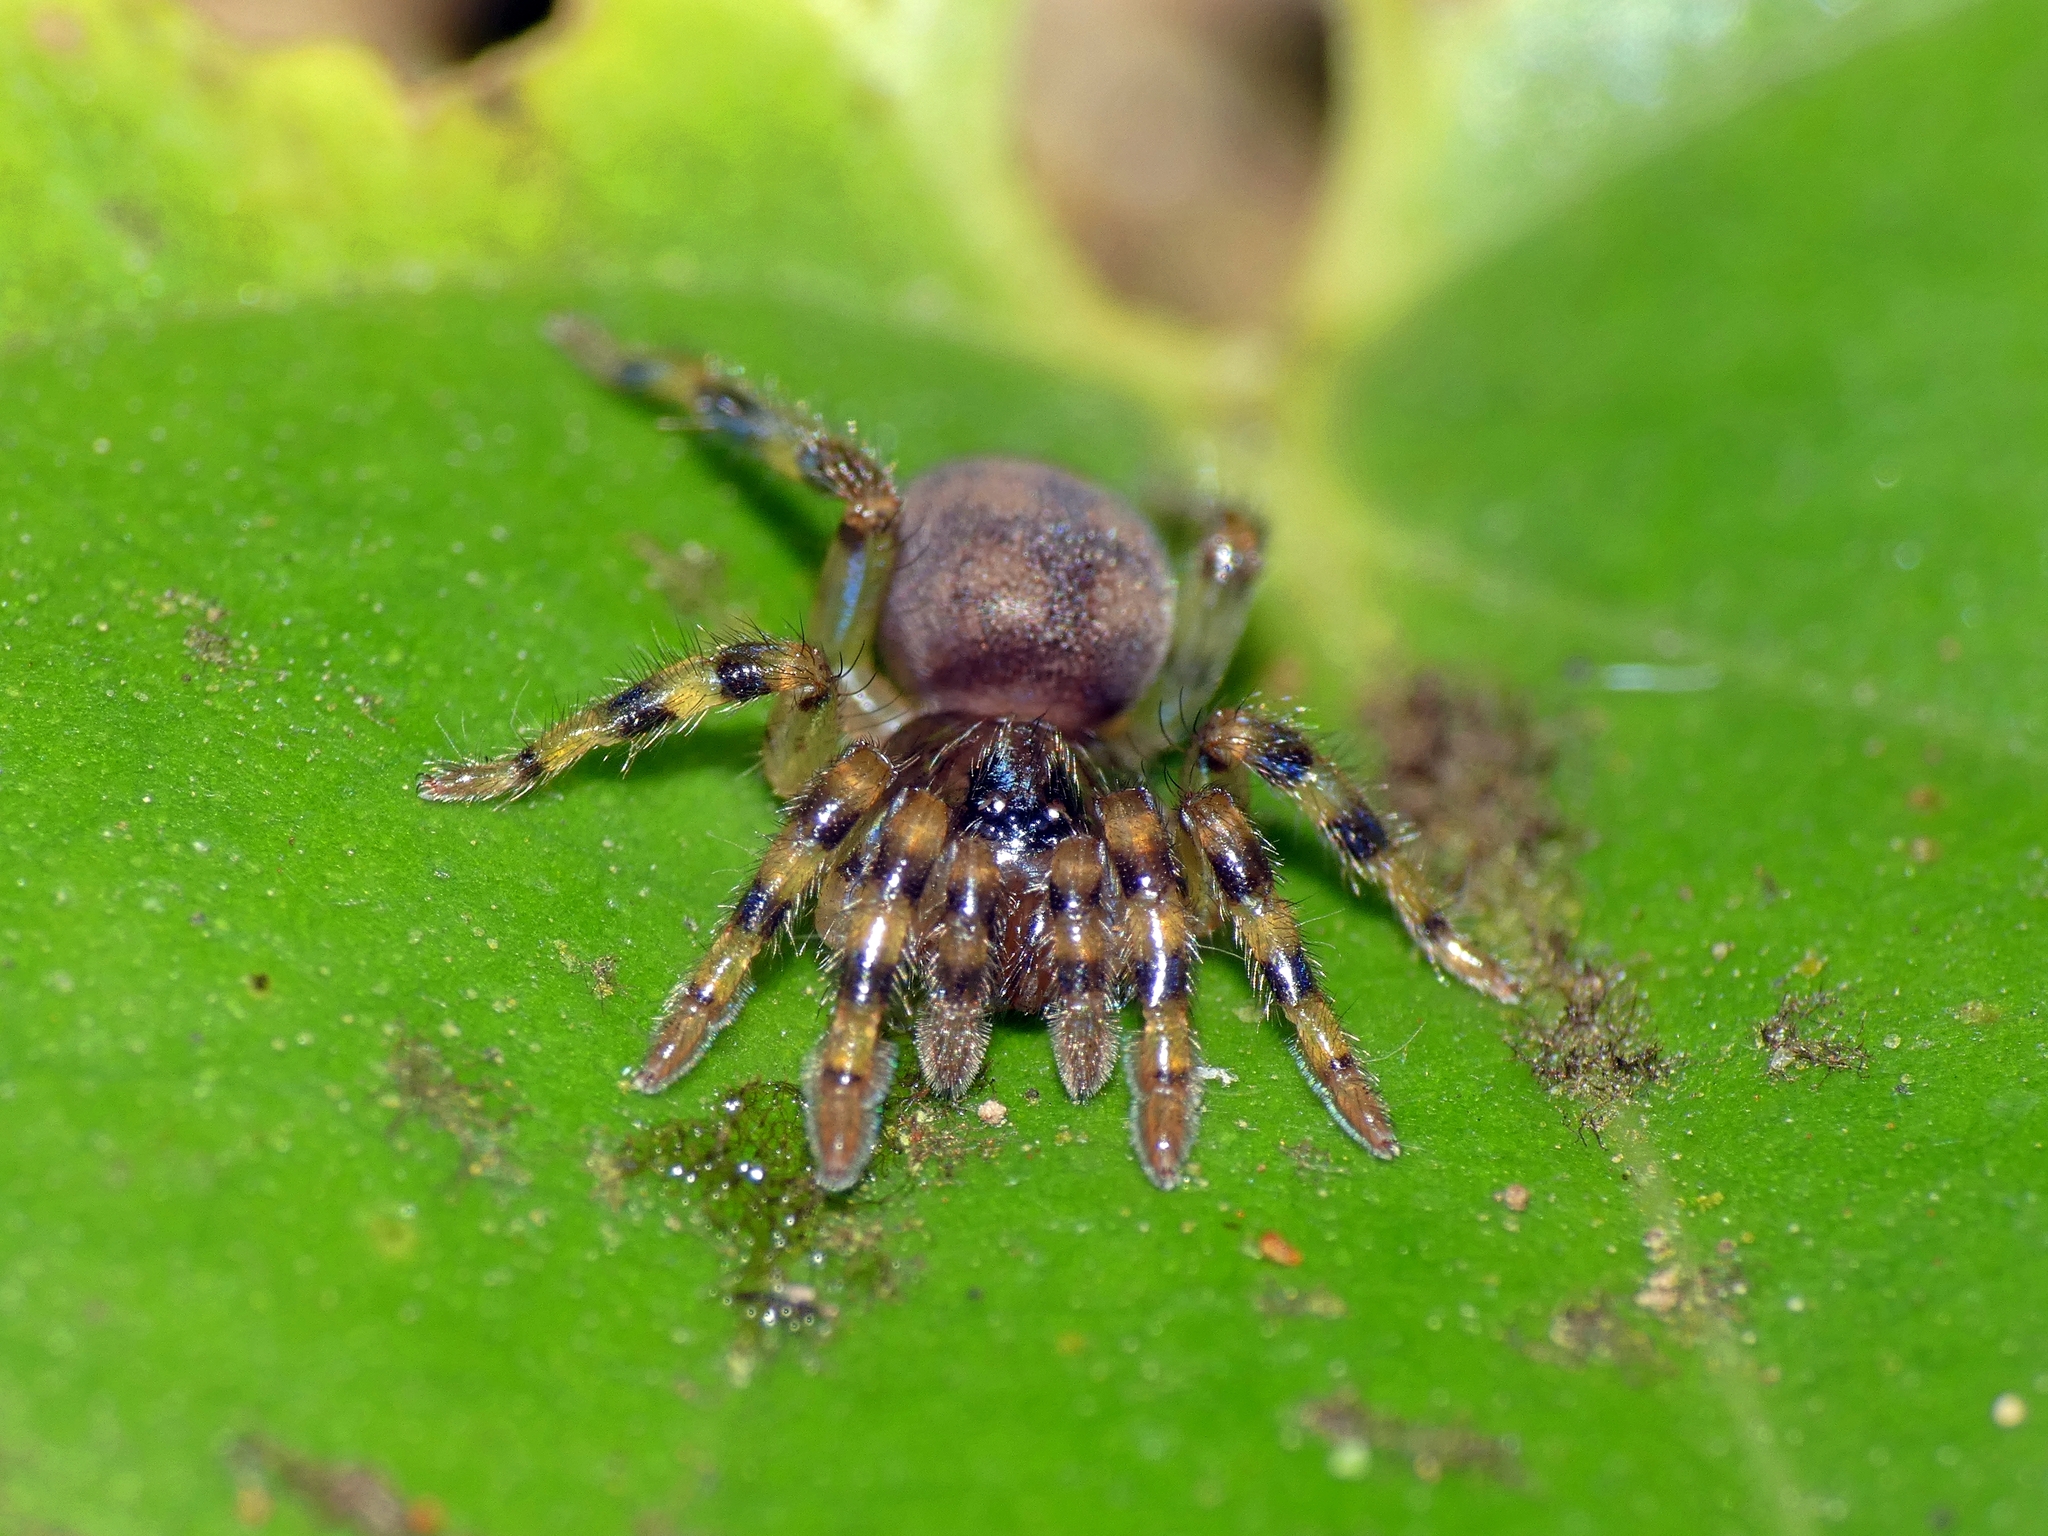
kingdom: Animalia
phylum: Arthropoda
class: Arachnida
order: Araneae
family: Barychelidae
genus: Sason
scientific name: Sason colemani
